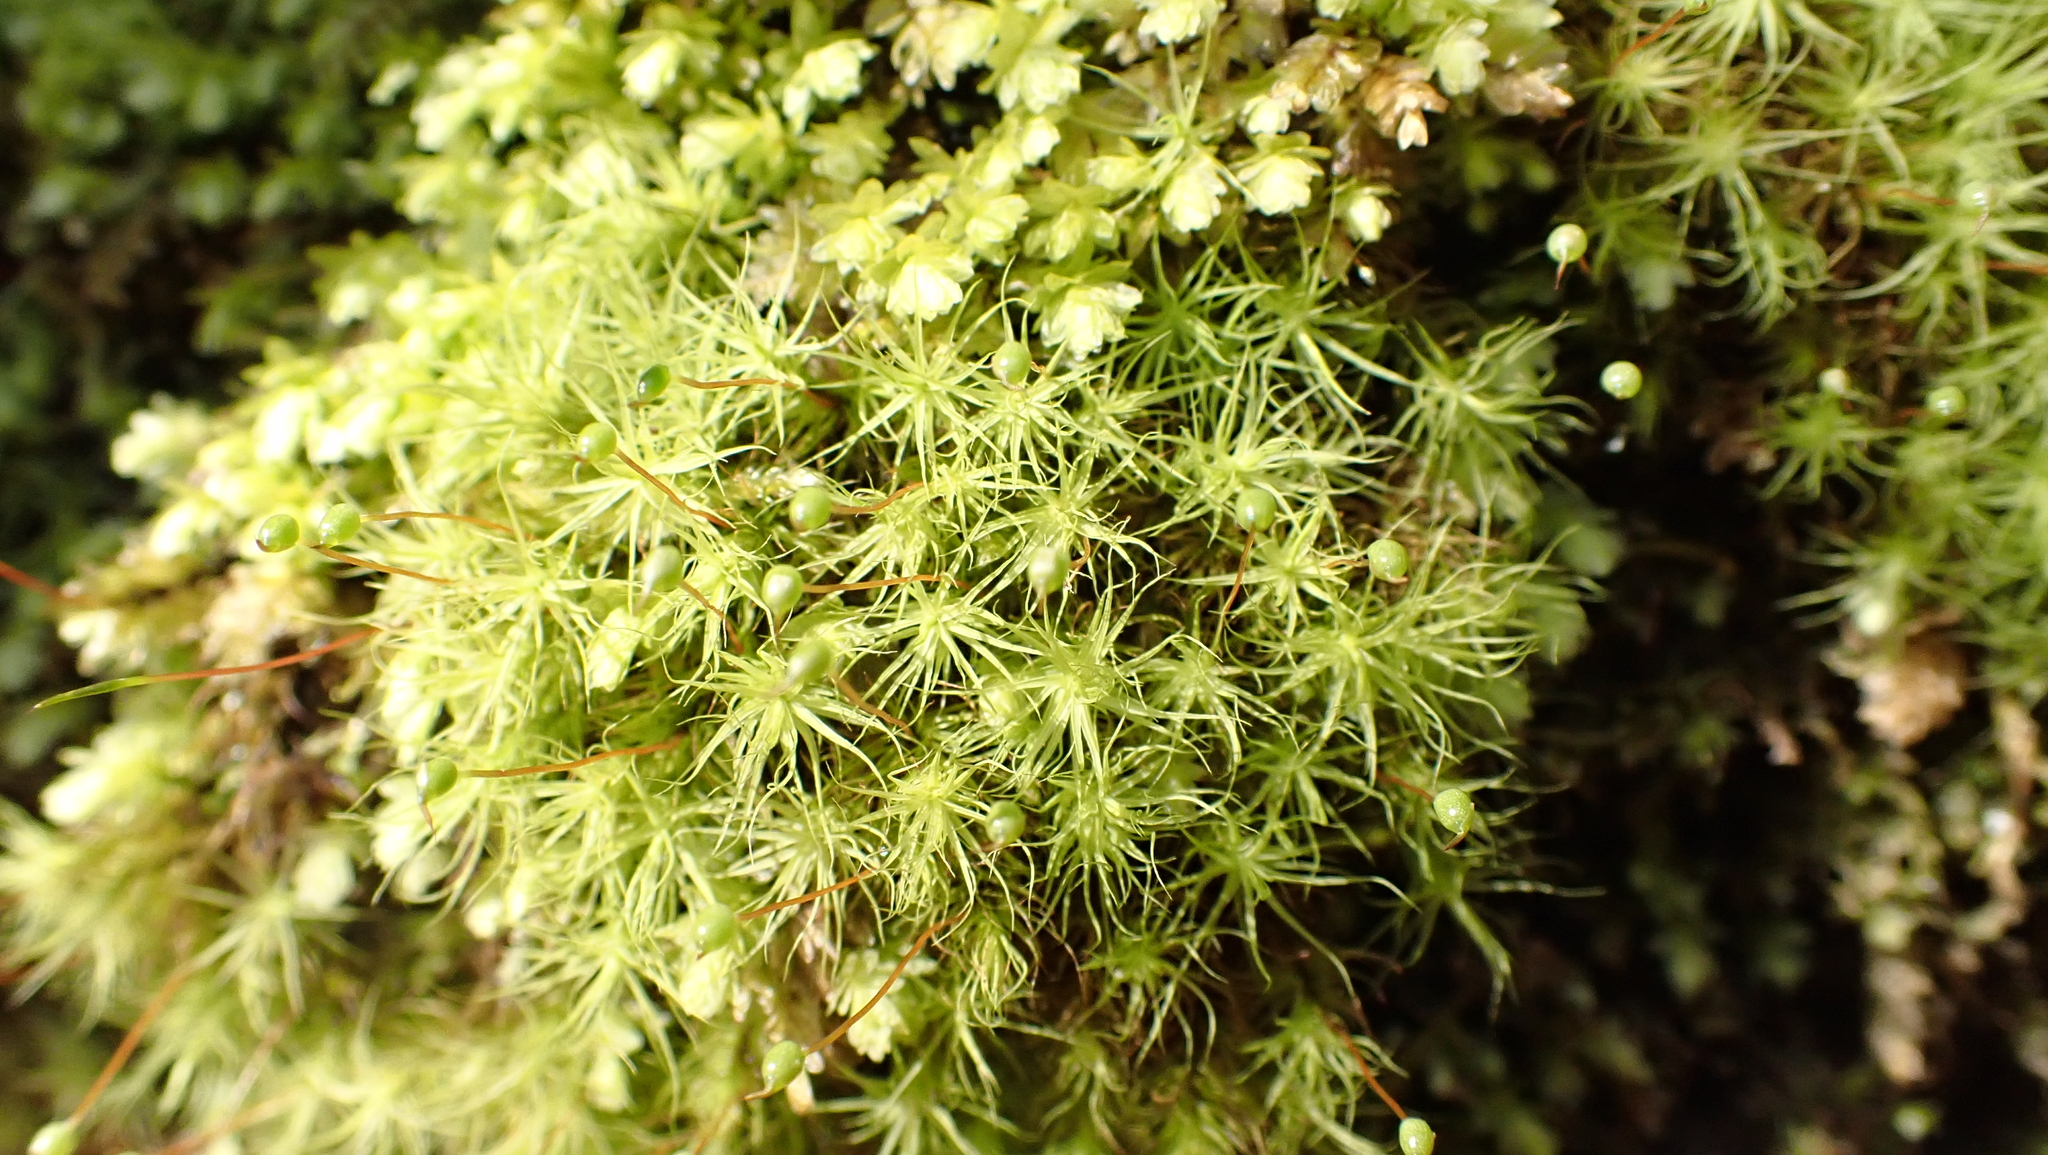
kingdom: Plantae
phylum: Bryophyta
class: Bryopsida
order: Bartramiales
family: Bartramiaceae
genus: Bartramia
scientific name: Bartramia ithyphylla
